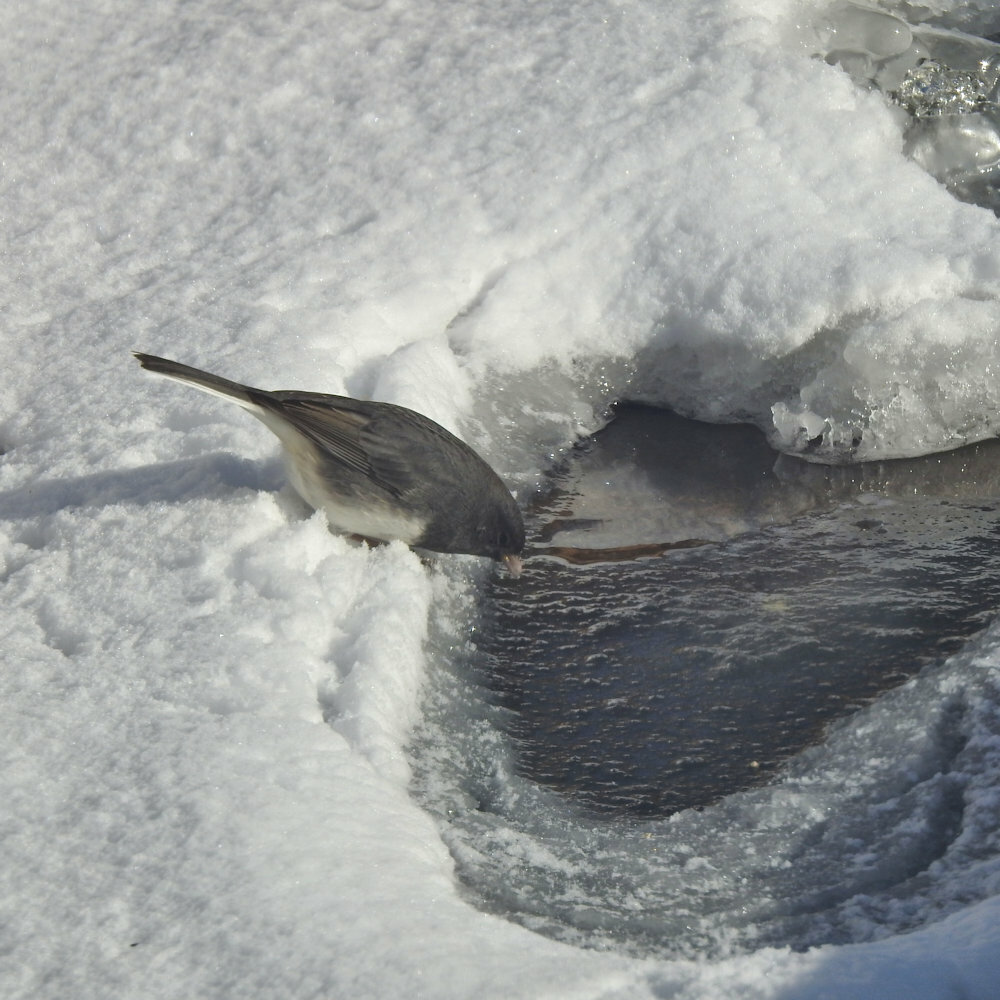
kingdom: Animalia
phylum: Chordata
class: Aves
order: Passeriformes
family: Passerellidae
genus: Junco
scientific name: Junco hyemalis
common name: Dark-eyed junco
